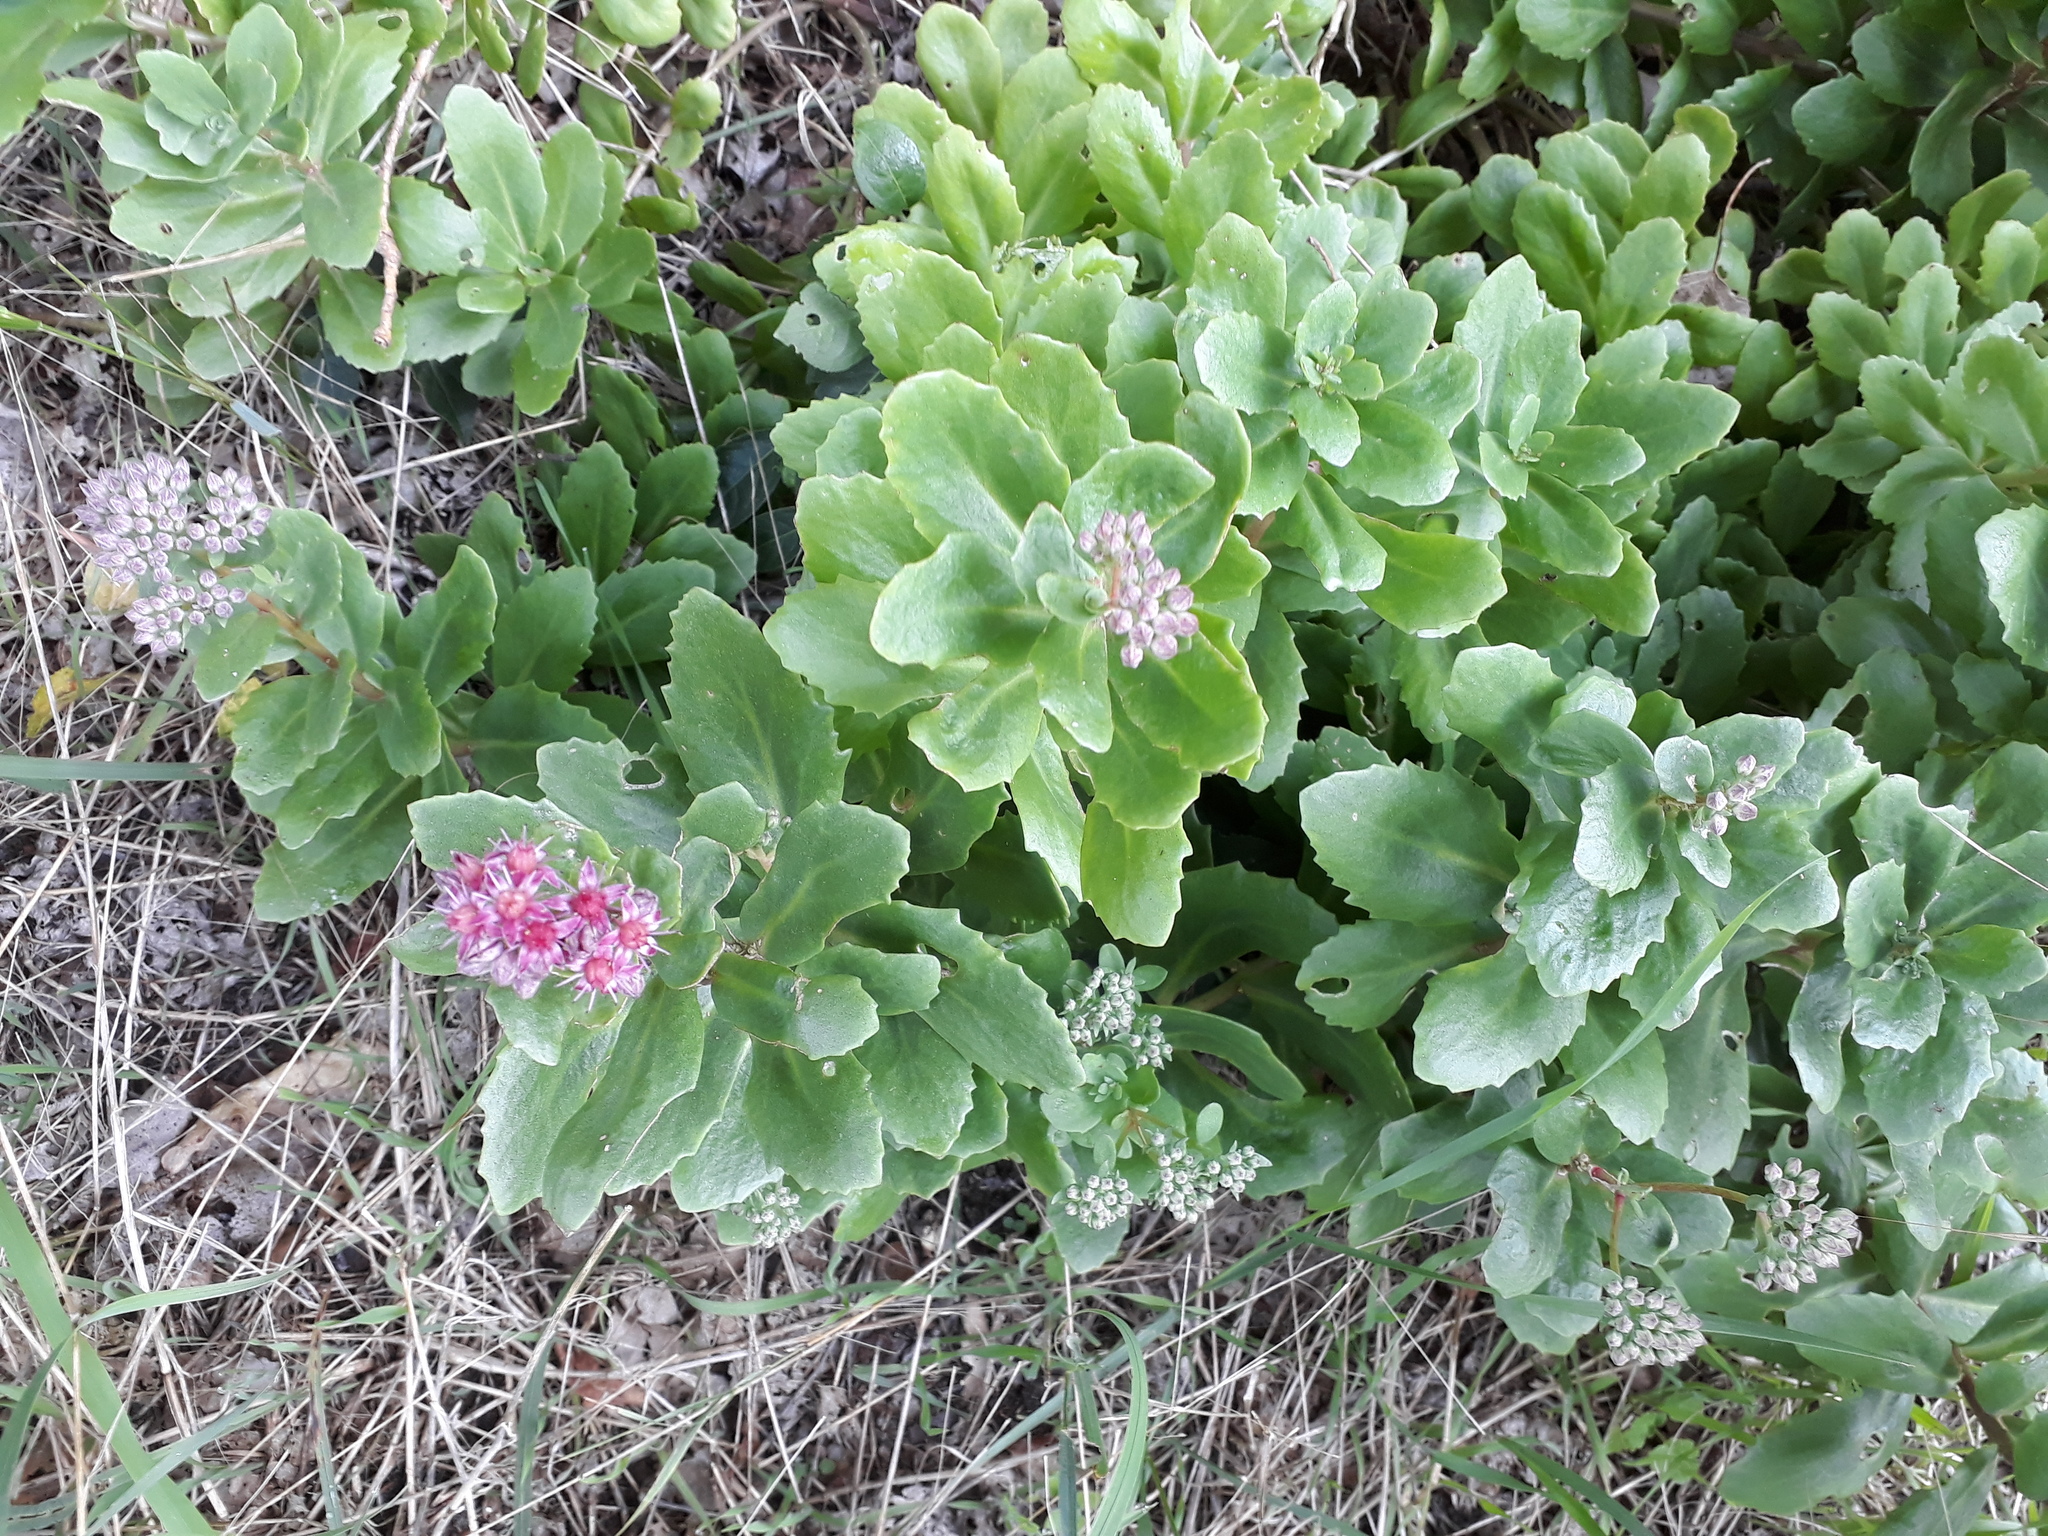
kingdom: Plantae
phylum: Tracheophyta
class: Magnoliopsida
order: Saxifragales
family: Crassulaceae
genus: Hylotelephium
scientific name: Hylotelephium telephium
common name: Live-forever
